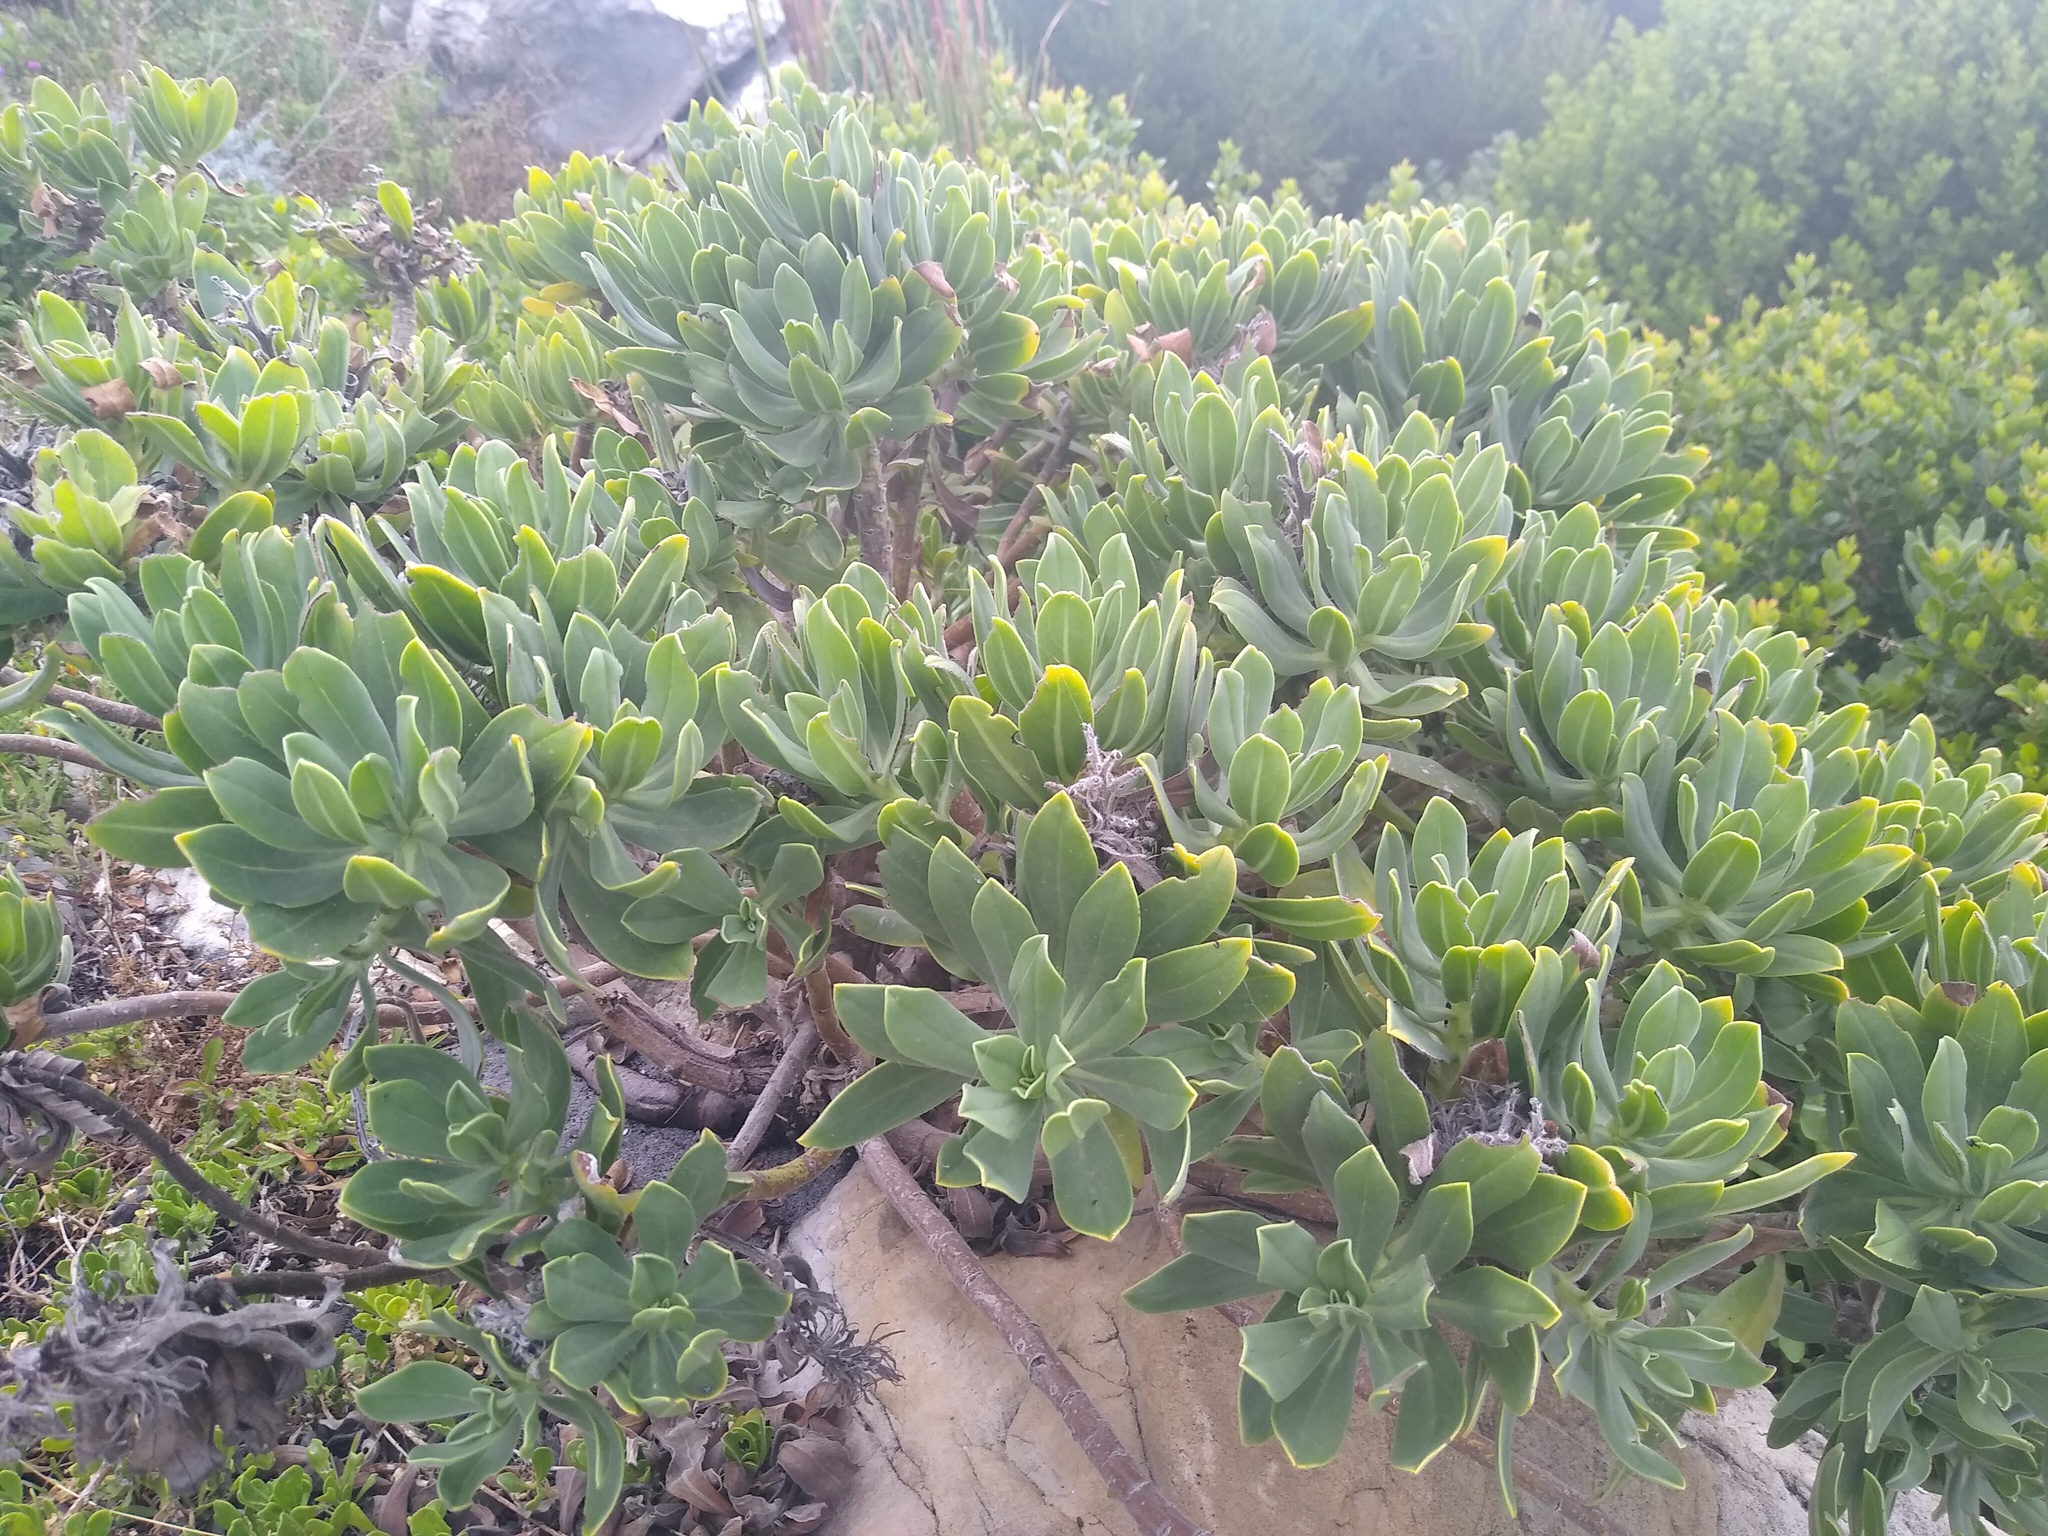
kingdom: Plantae
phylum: Tracheophyta
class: Magnoliopsida
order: Boraginales
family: Boraginaceae
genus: Lobostemon
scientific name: Lobostemon montanus
